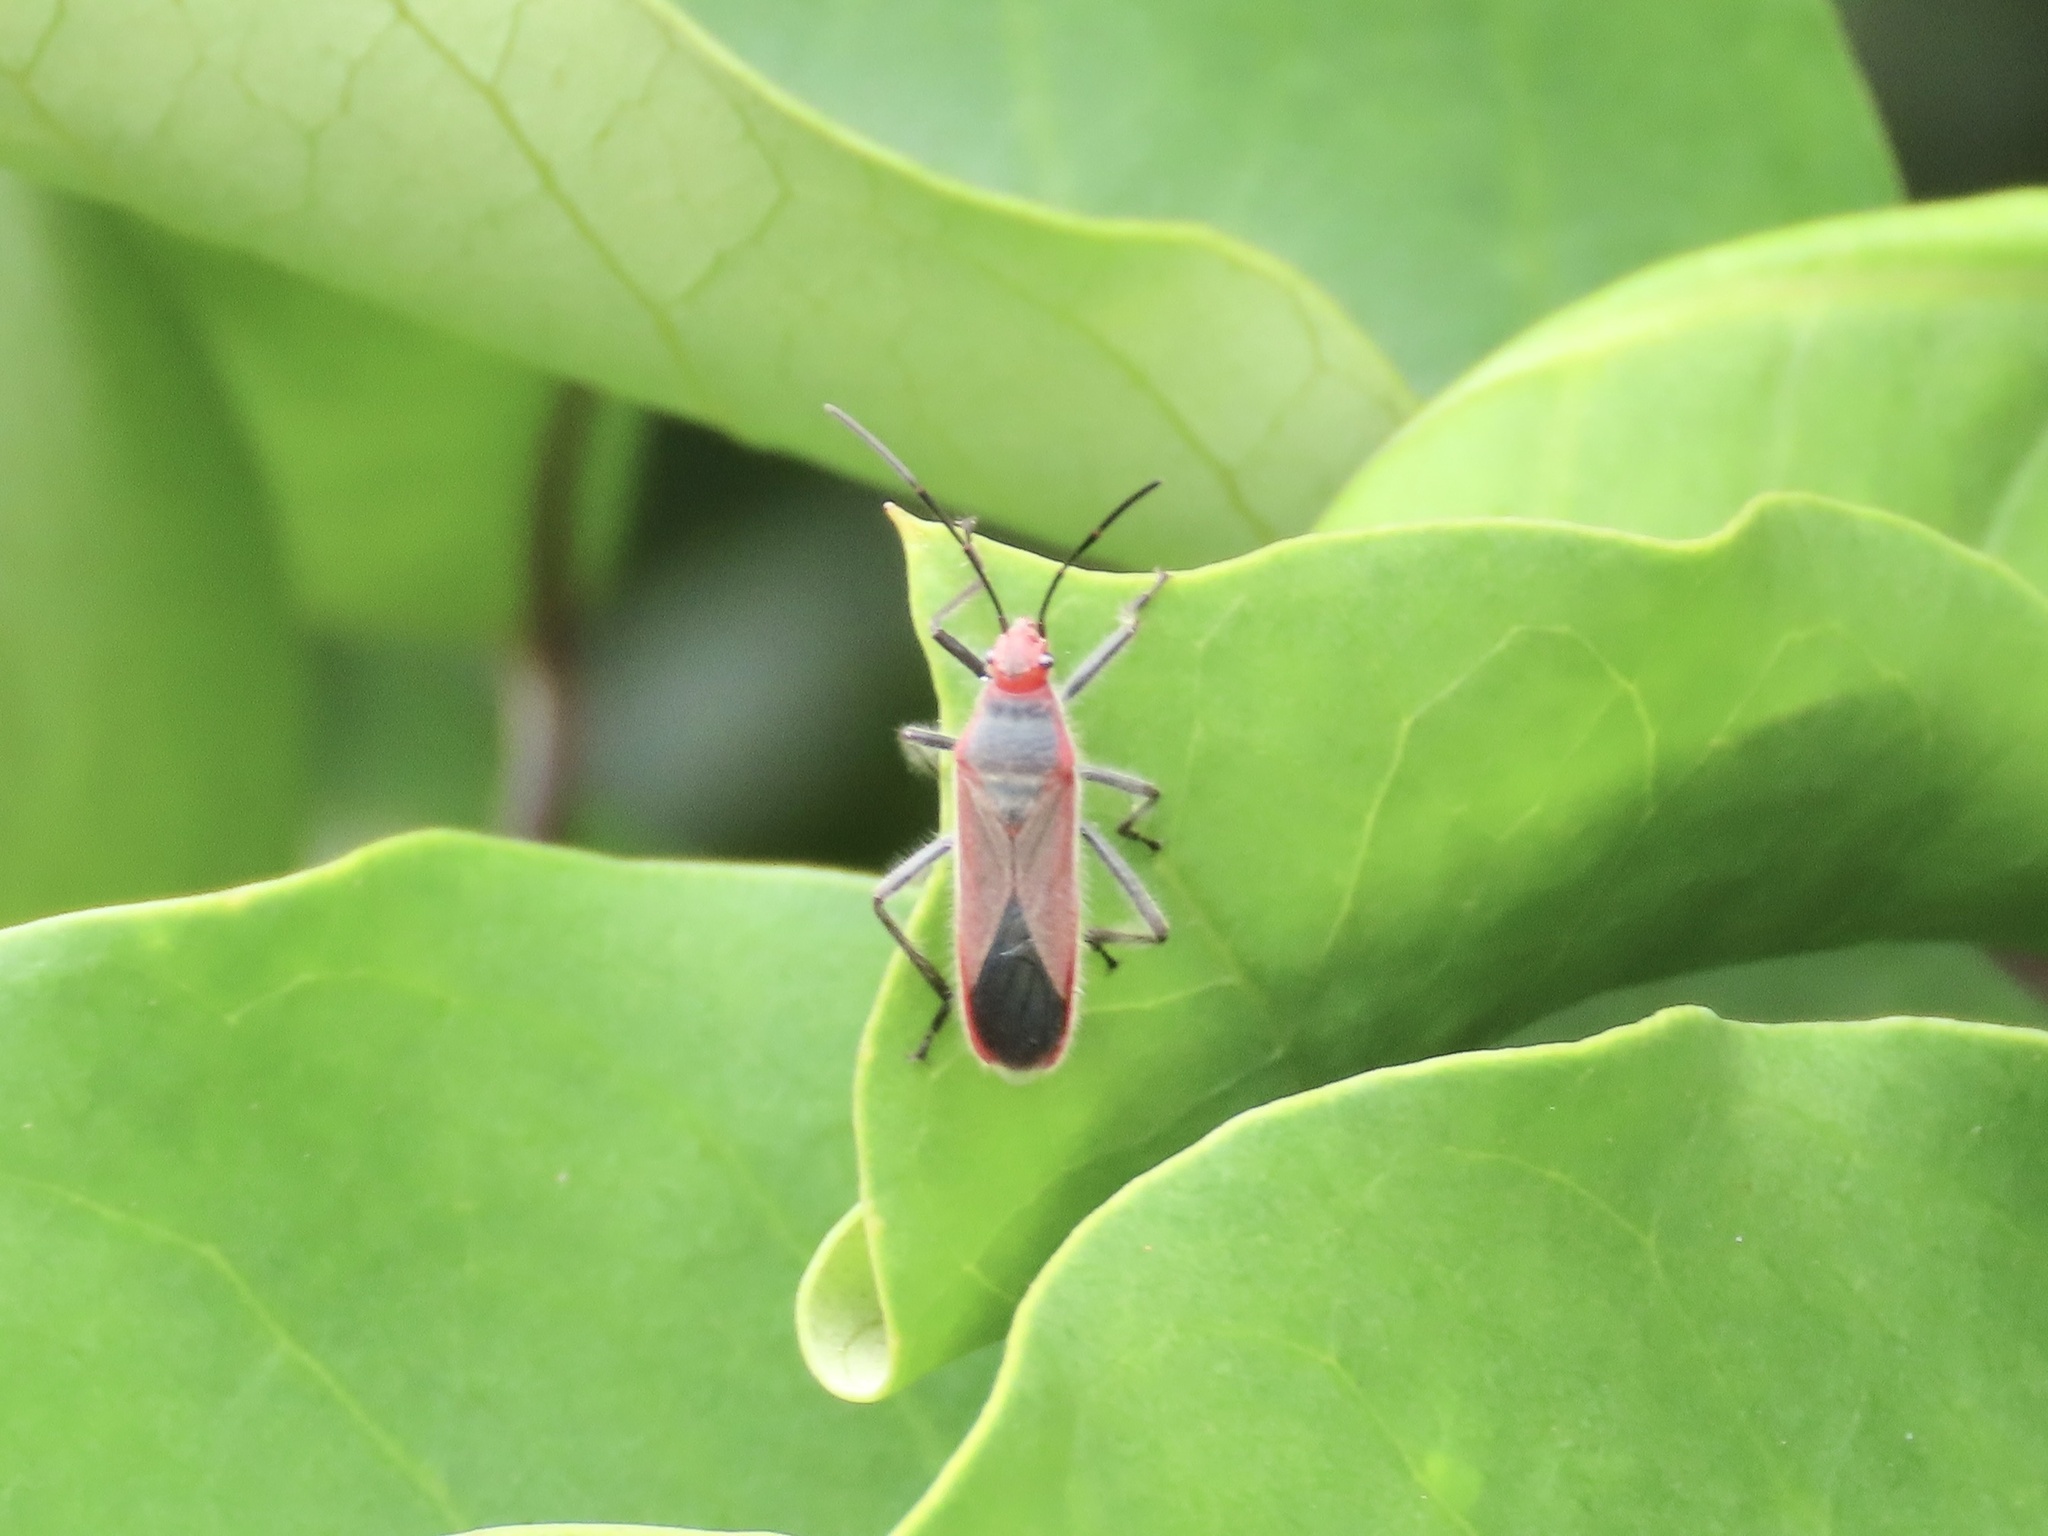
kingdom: Animalia
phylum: Arthropoda
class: Insecta
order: Hemiptera
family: Lygaeidae
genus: Thunbergia
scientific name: Thunbergia marginatus
